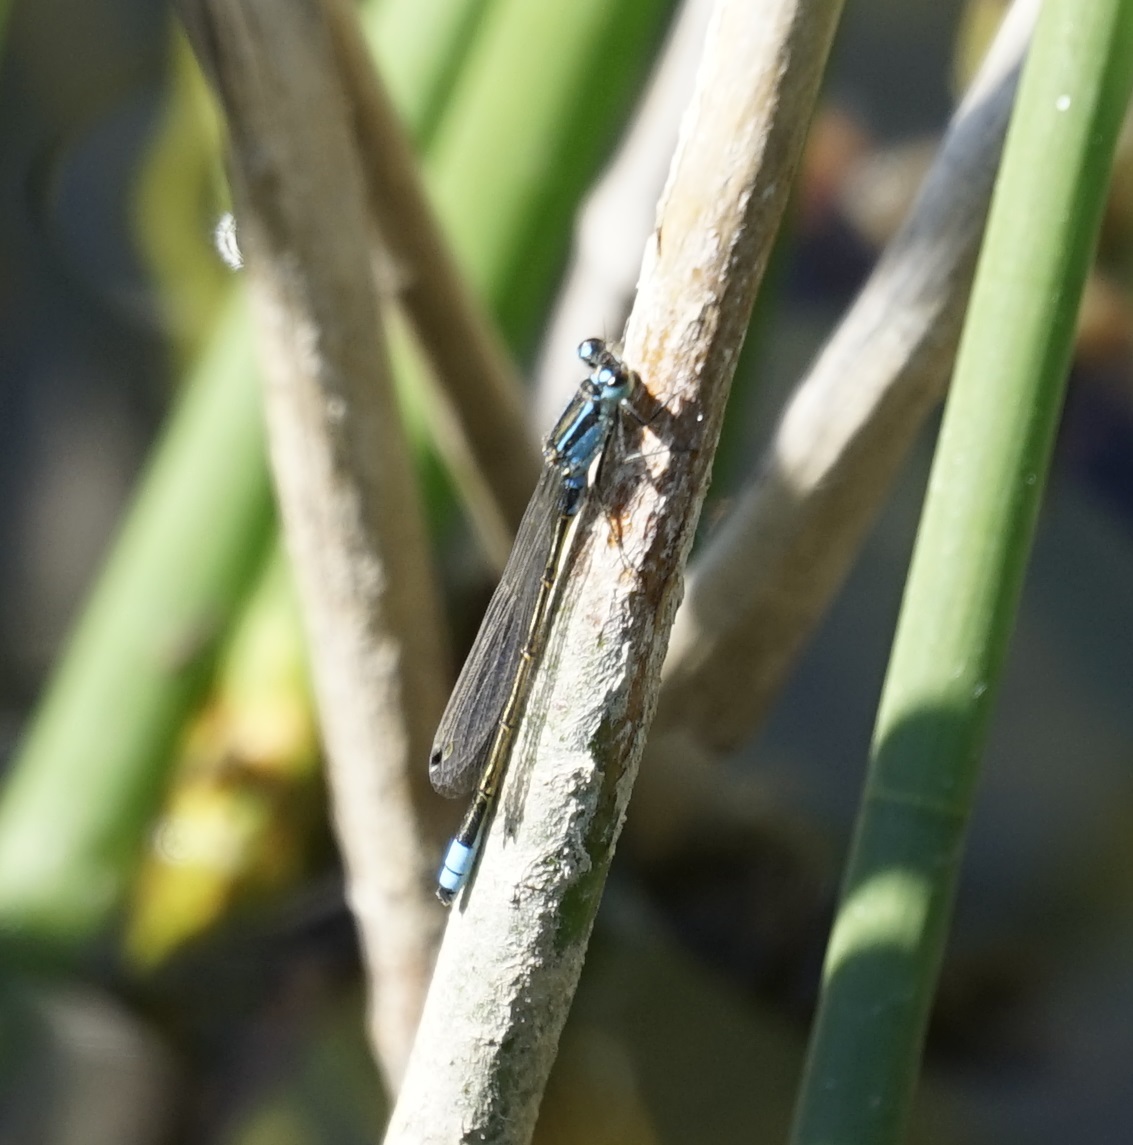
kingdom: Animalia
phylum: Arthropoda
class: Insecta
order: Odonata
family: Coenagrionidae
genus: Ischnura
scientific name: Ischnura heterosticta
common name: Common bluetail
